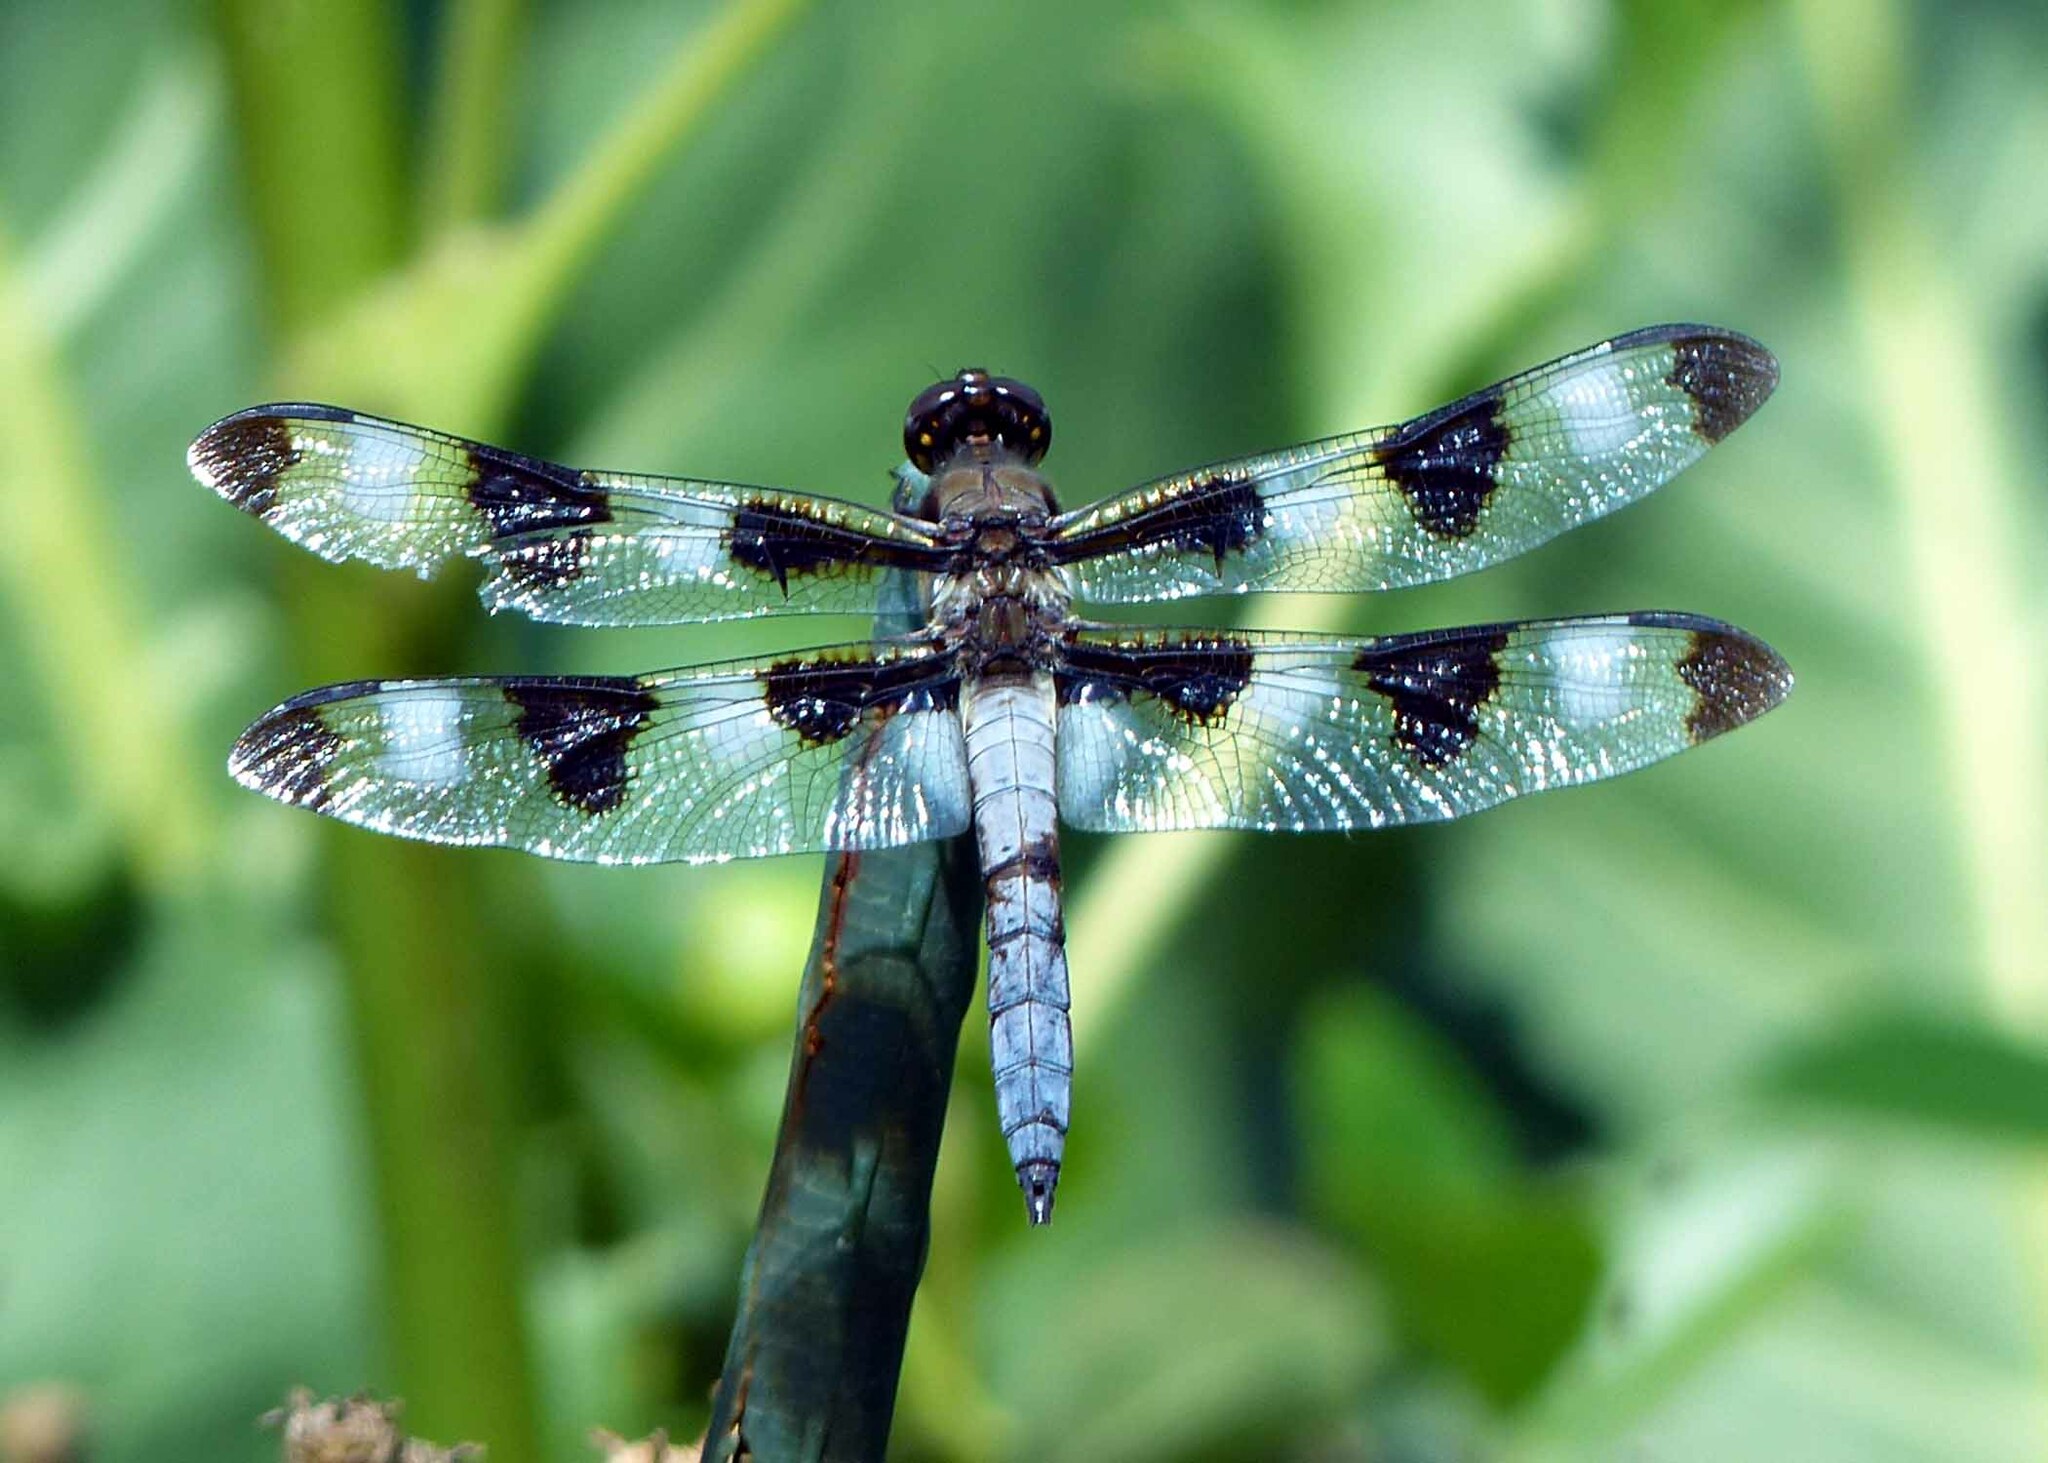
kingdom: Animalia
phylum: Arthropoda
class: Insecta
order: Odonata
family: Libellulidae
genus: Libellula
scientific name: Libellula pulchella
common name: Twelve-spotted skimmer
